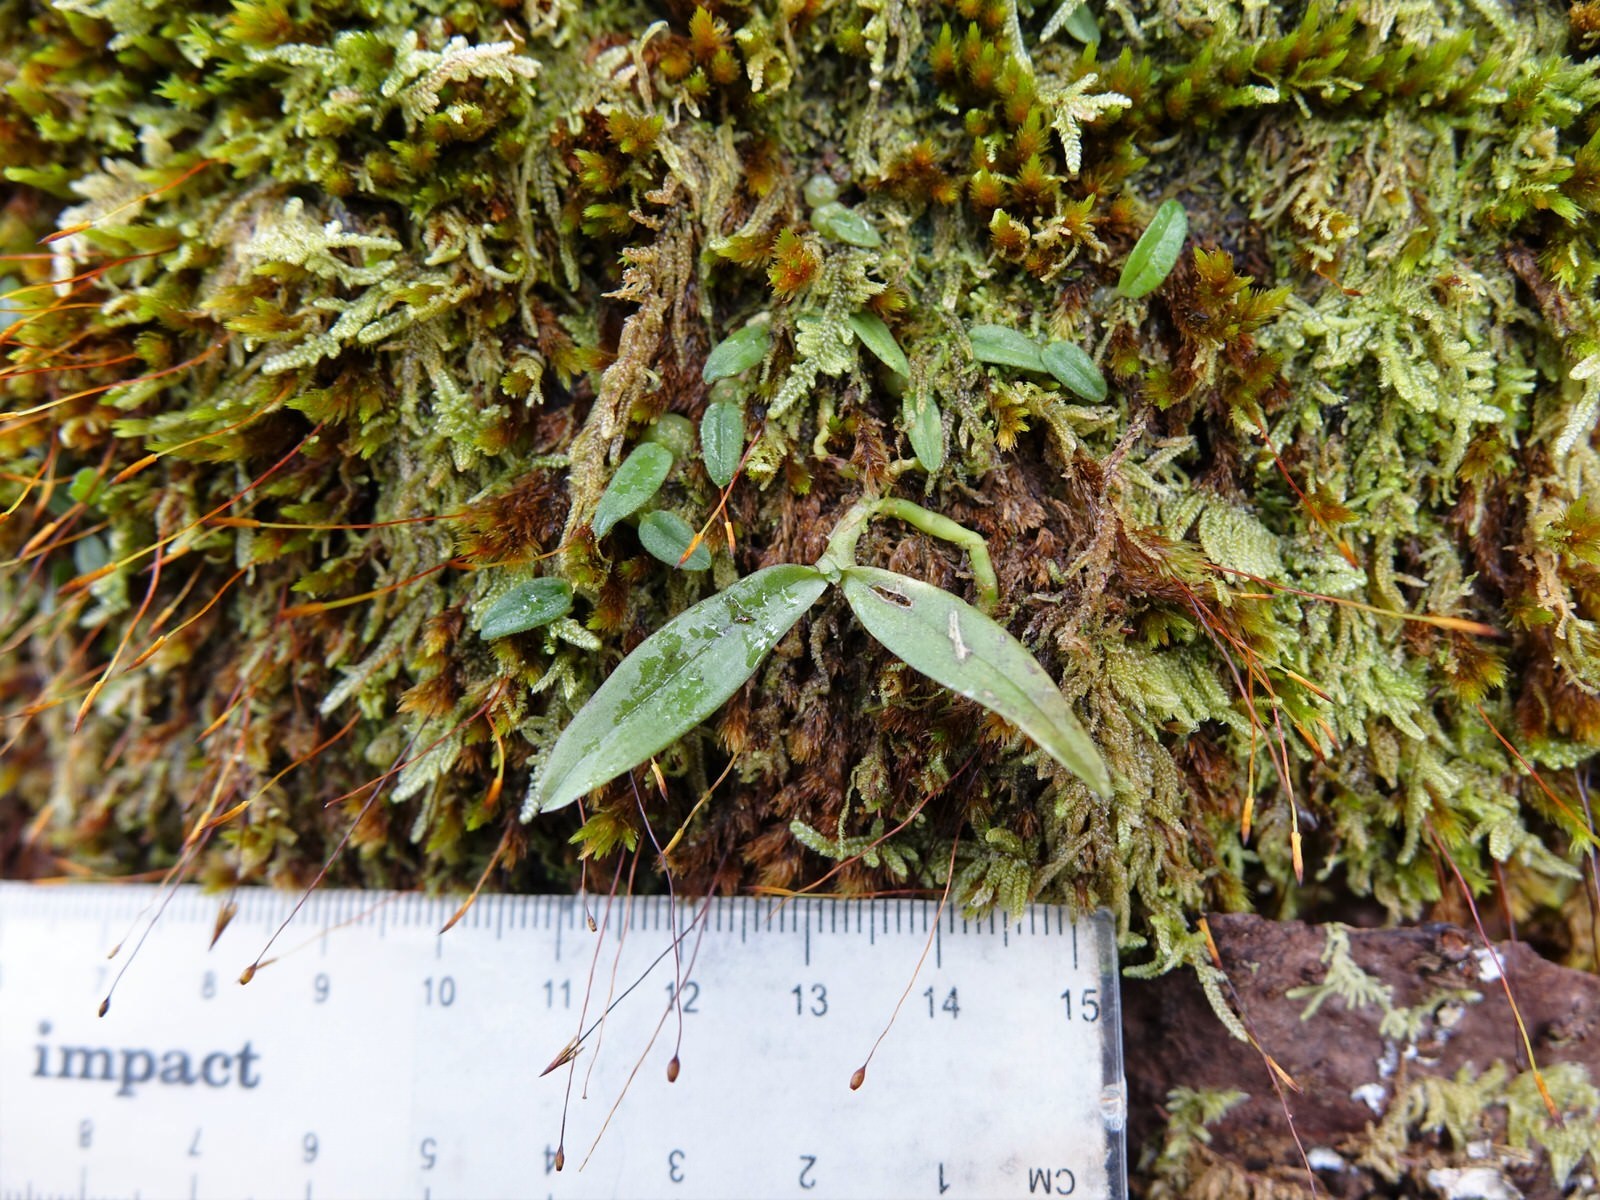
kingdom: Plantae
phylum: Tracheophyta
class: Liliopsida
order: Asparagales
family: Orchidaceae
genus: Drymoanthus
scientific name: Drymoanthus adversus
